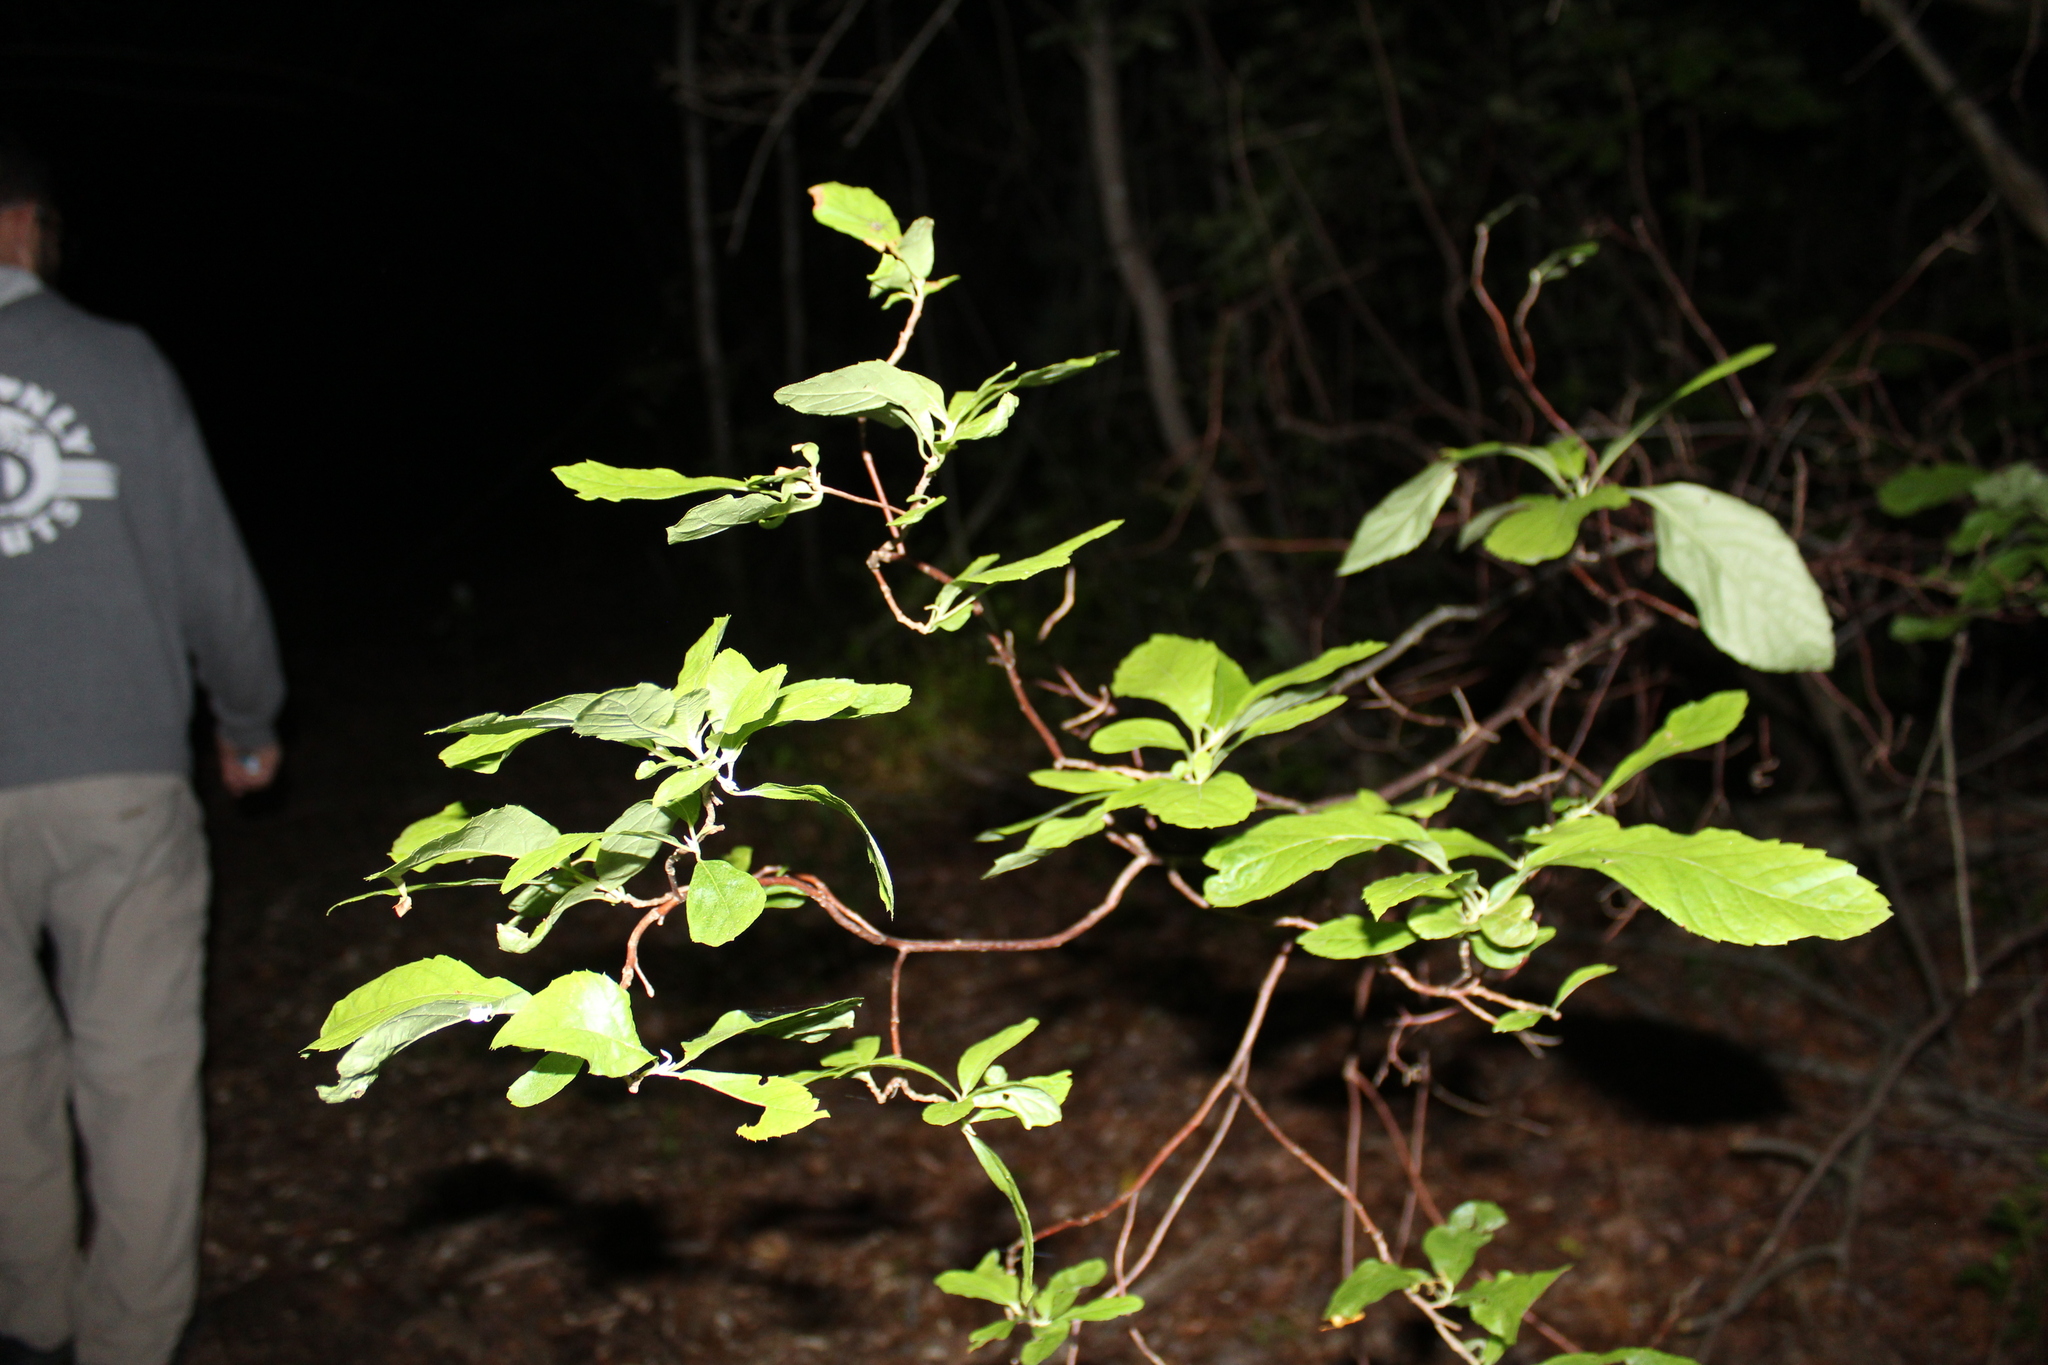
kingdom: Plantae
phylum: Tracheophyta
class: Magnoliopsida
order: Ericales
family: Clethraceae
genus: Clethra
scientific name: Clethra alnifolia
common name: Sweet pepperbush
